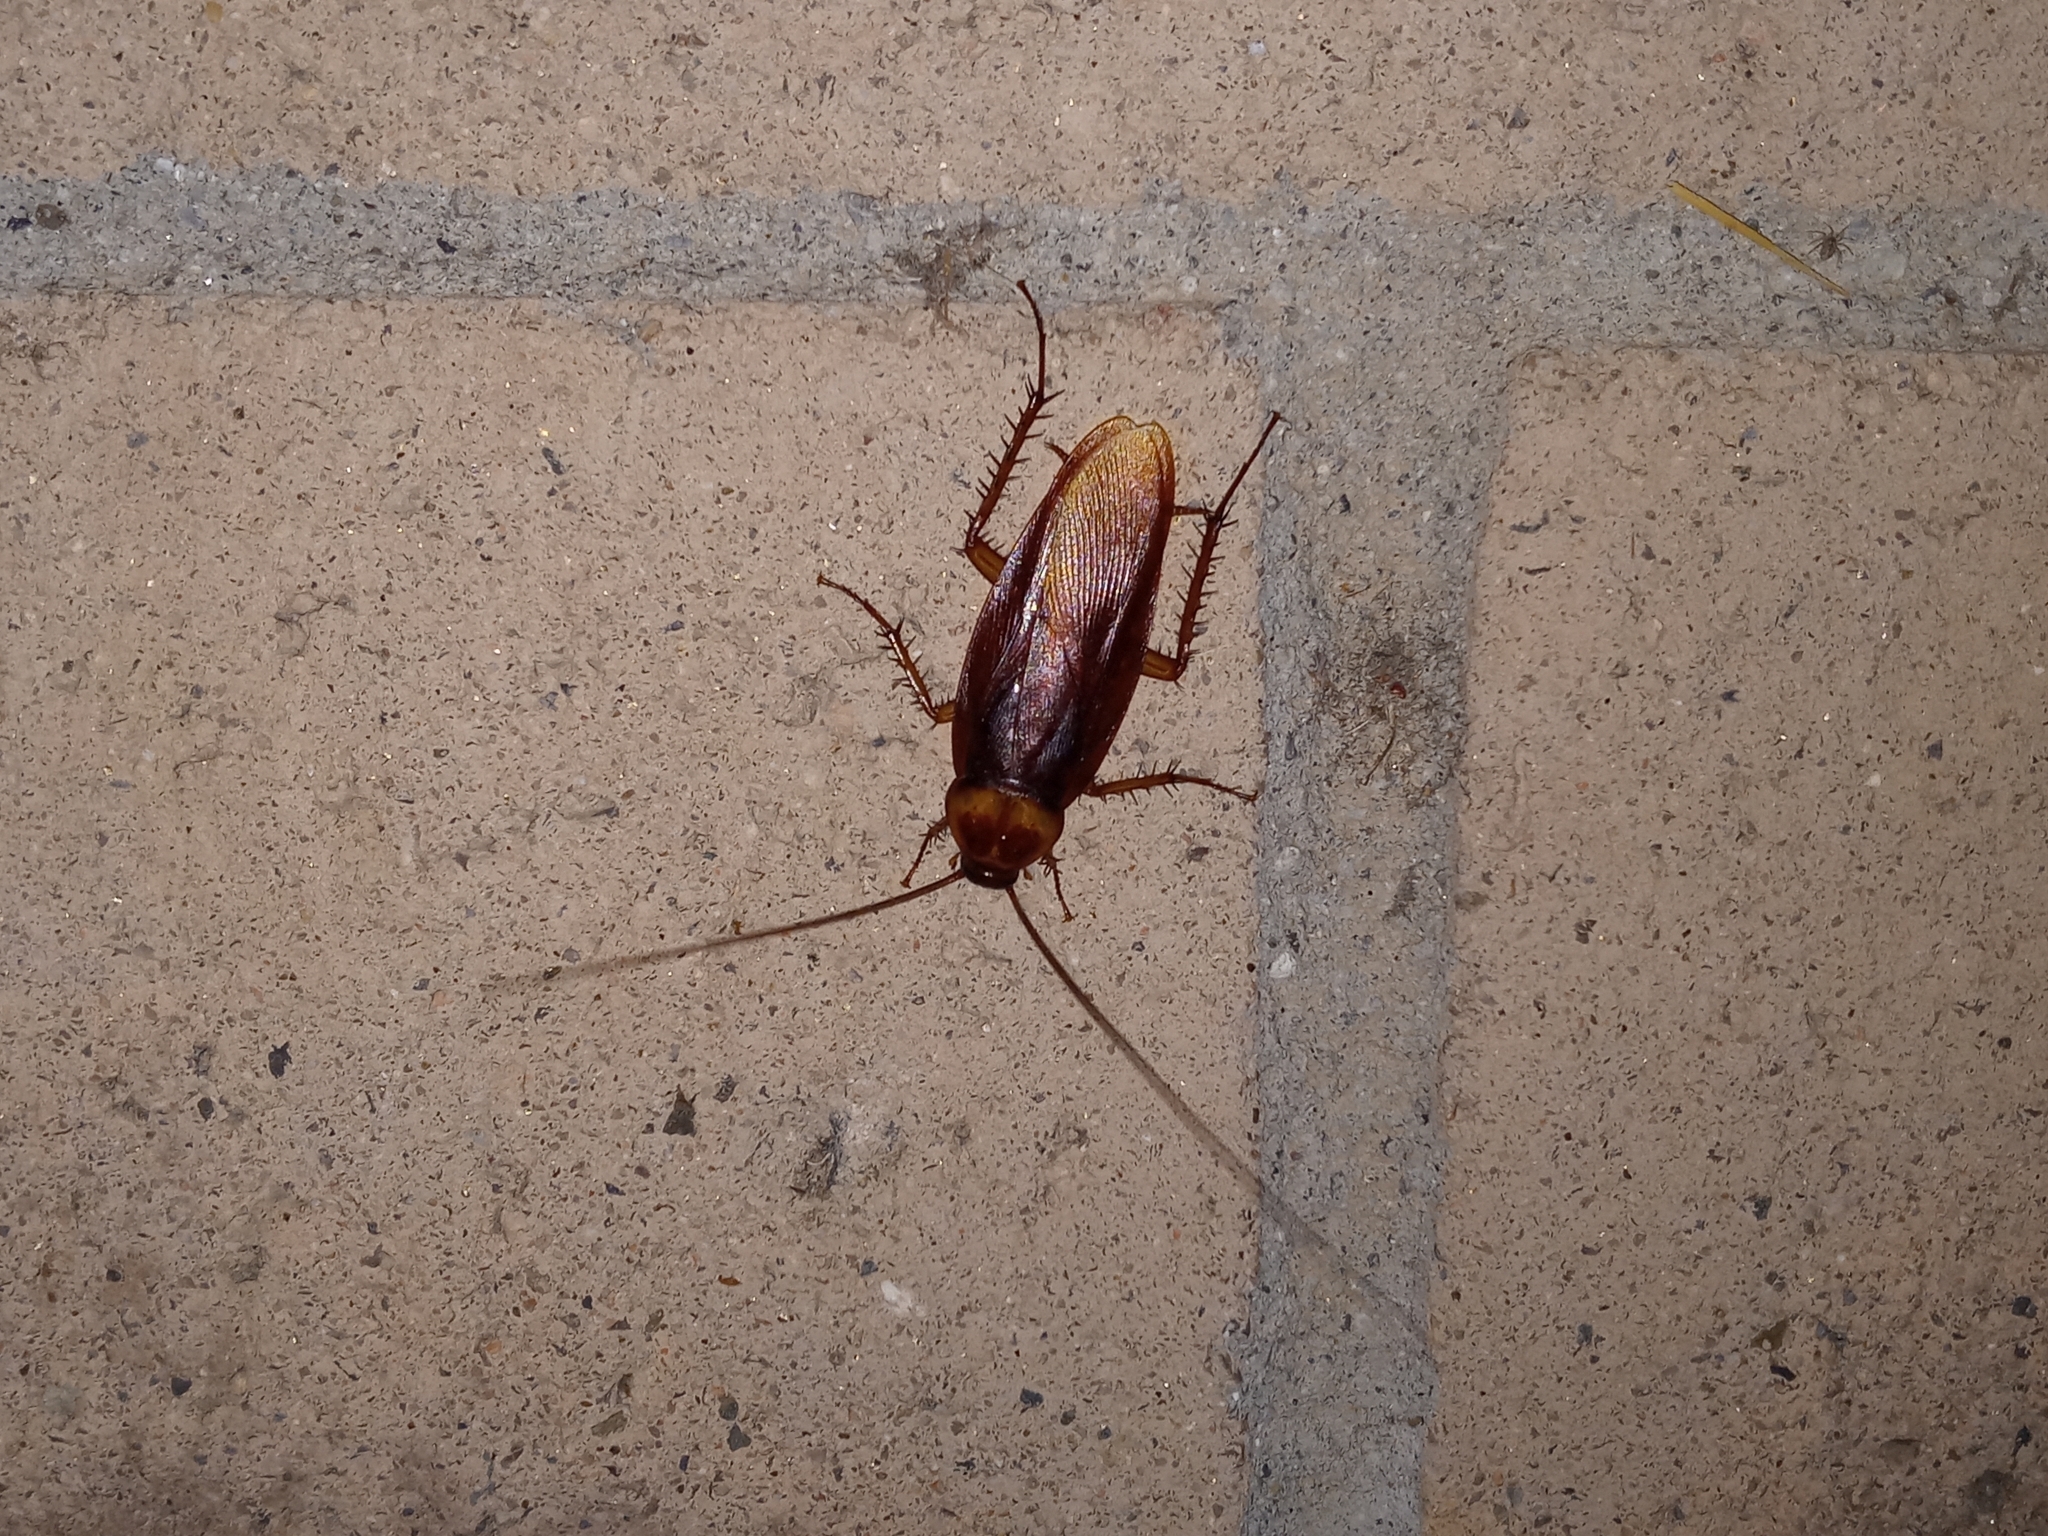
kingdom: Animalia
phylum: Arthropoda
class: Insecta
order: Blattodea
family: Blattidae
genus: Periplaneta
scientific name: Periplaneta americana
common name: American cockroach
